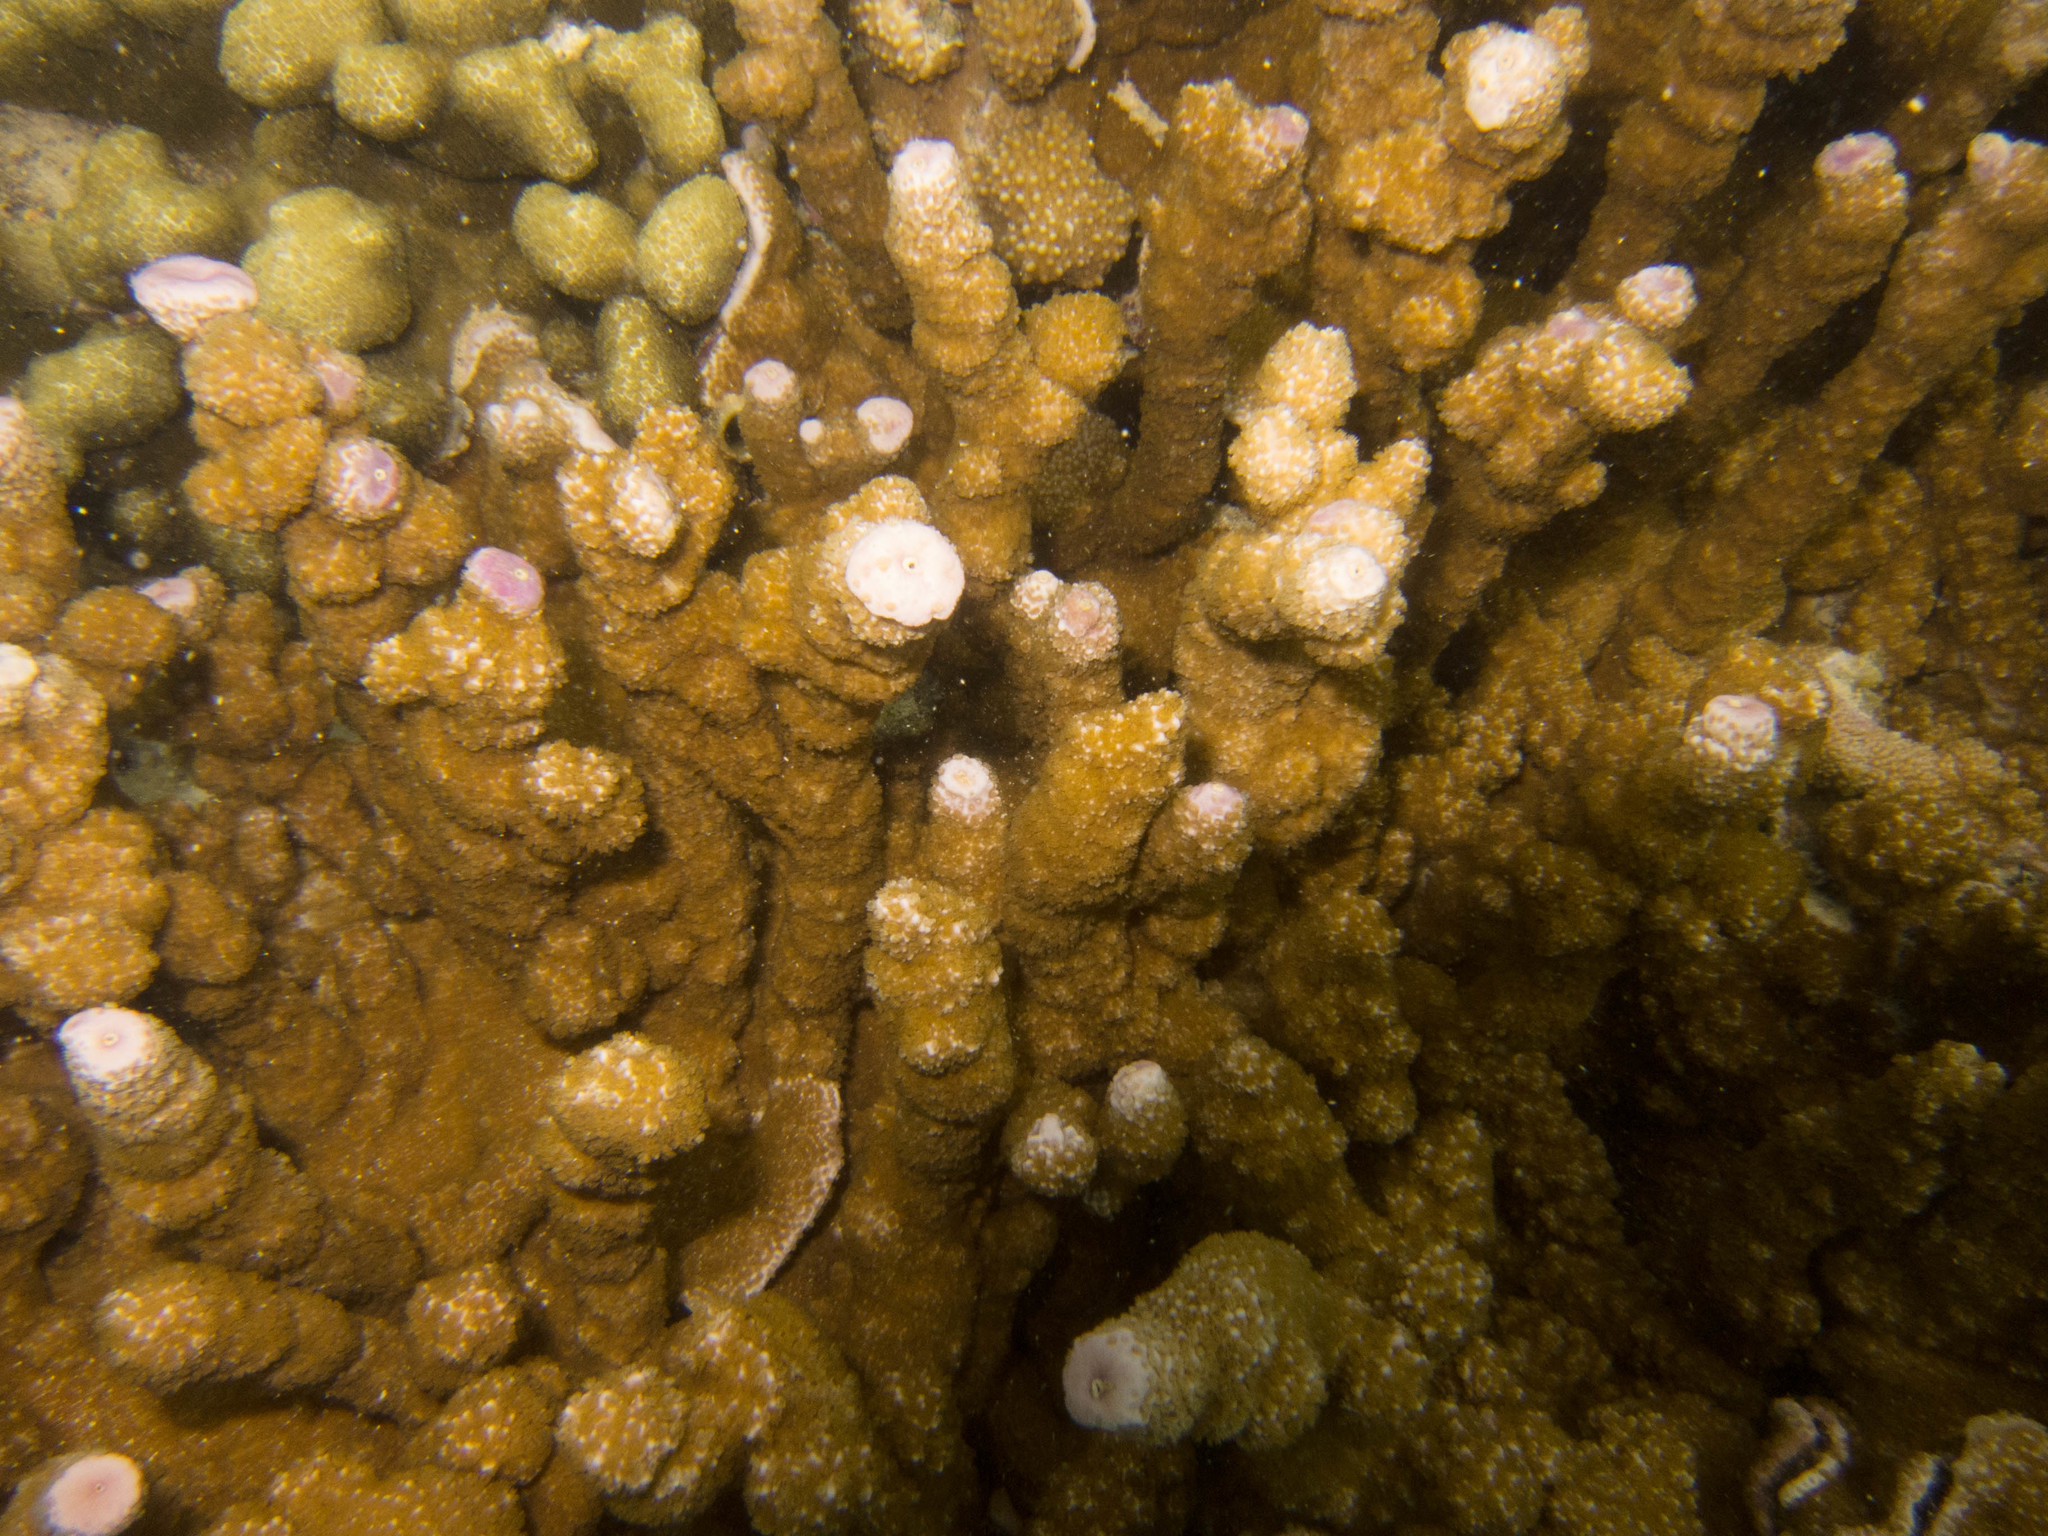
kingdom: Animalia
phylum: Cnidaria
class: Anthozoa
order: Scleractinia
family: Acroporidae
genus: Montipora
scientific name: Montipora flabellata
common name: Pore coral
